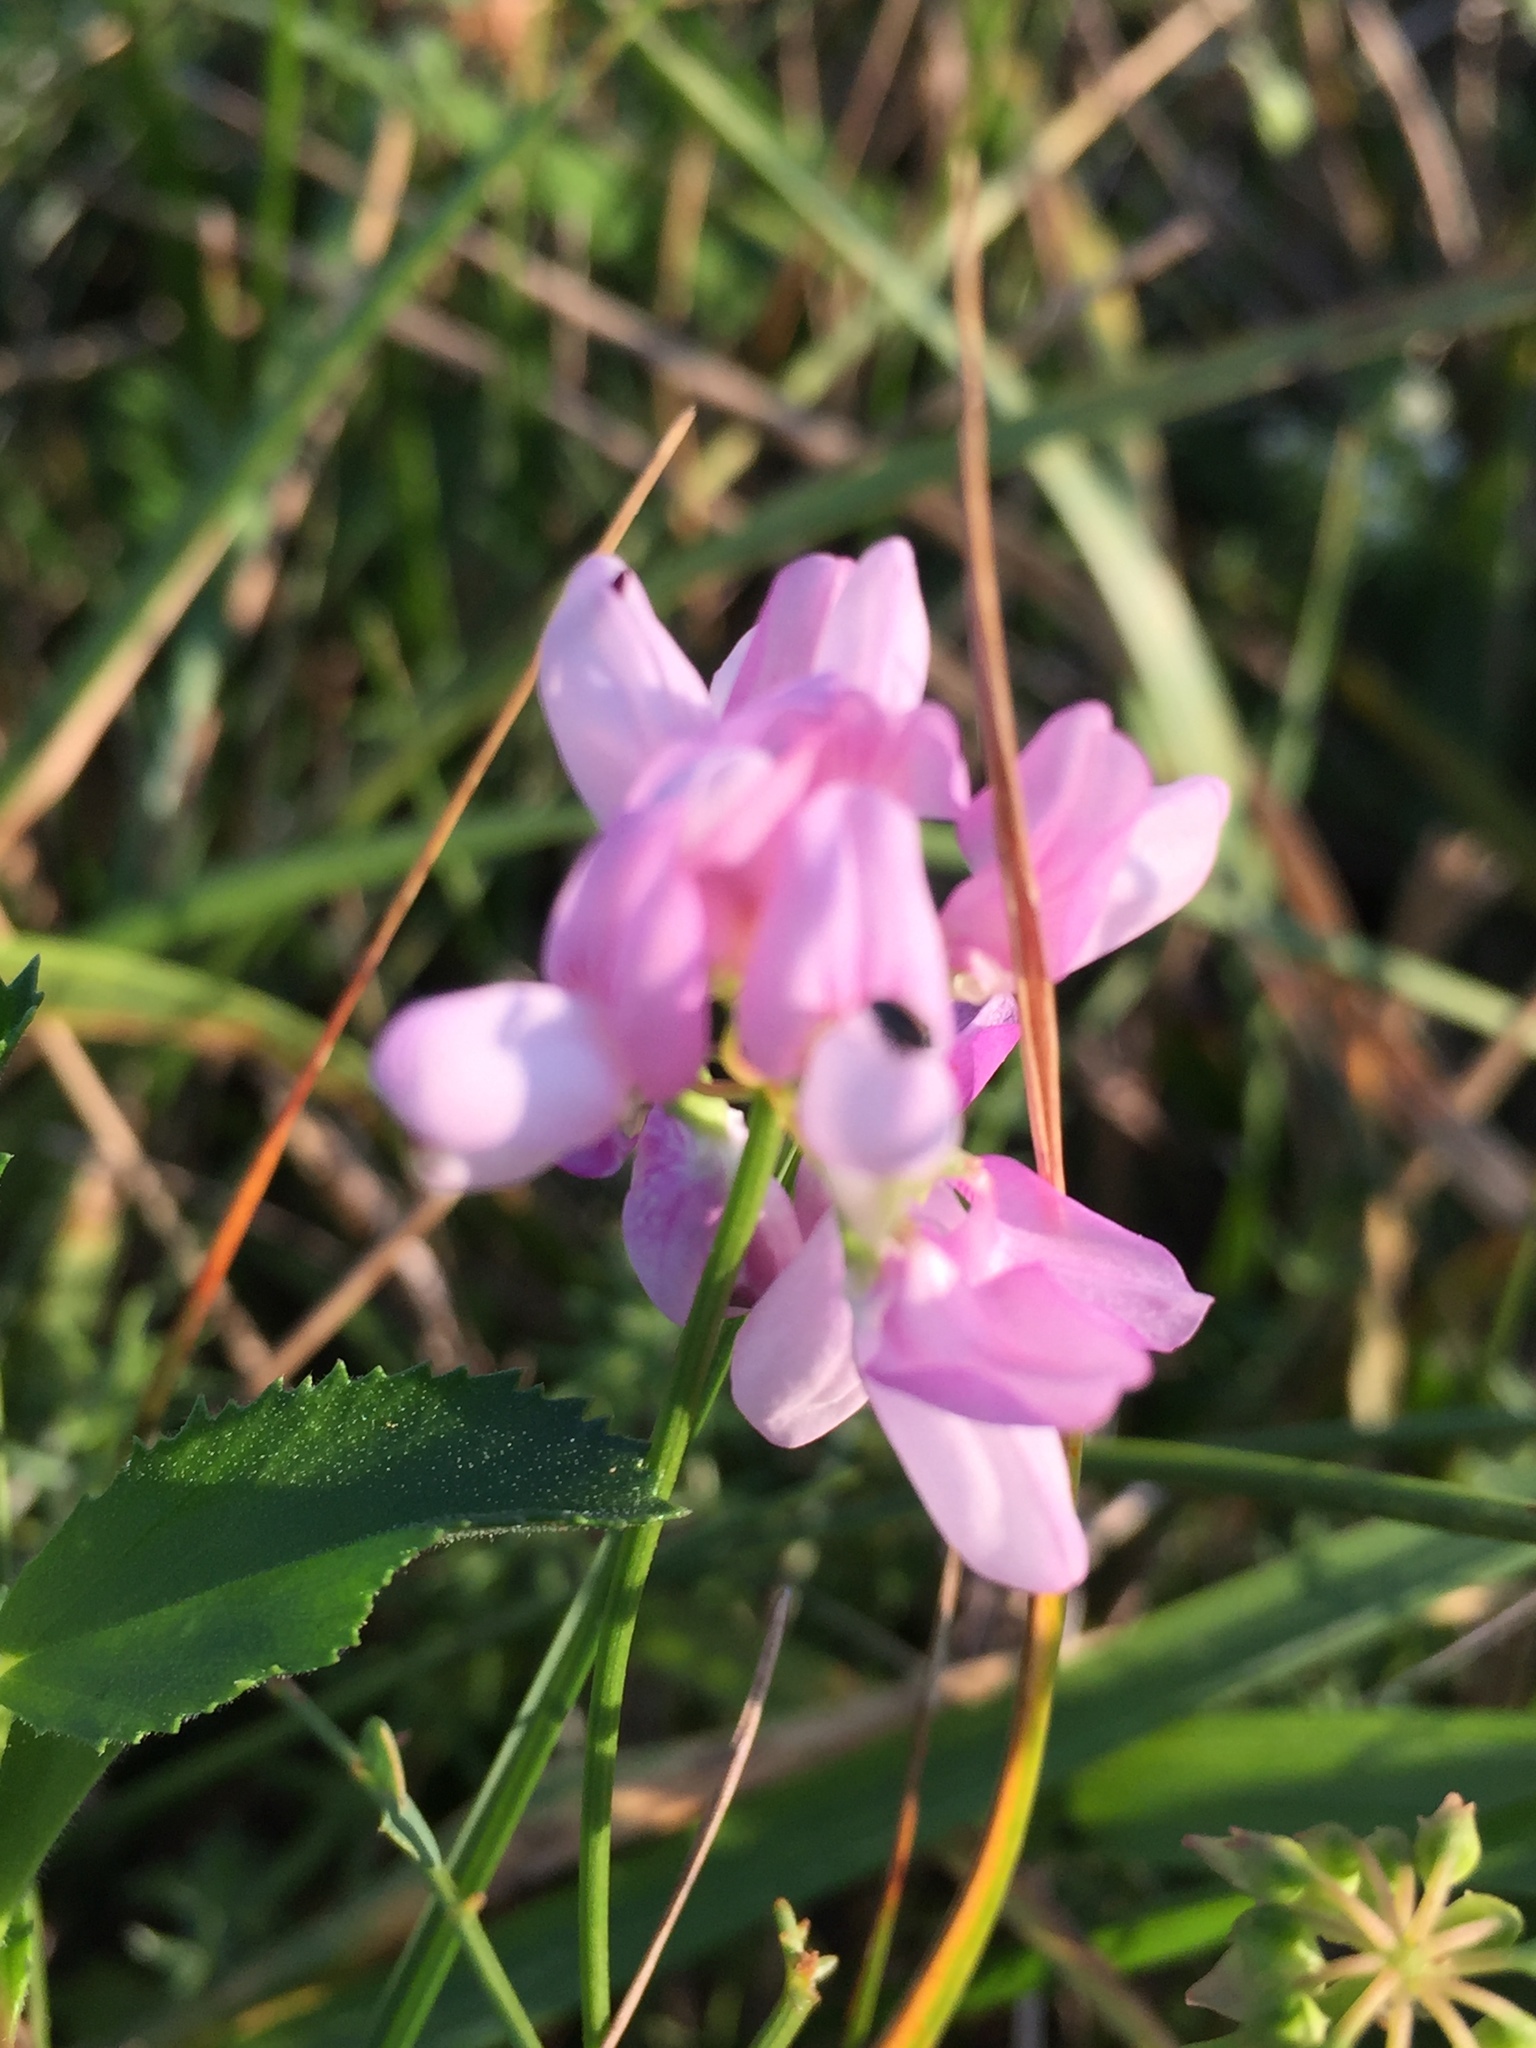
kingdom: Plantae
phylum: Tracheophyta
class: Magnoliopsida
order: Fabales
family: Fabaceae
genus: Coronilla
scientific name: Coronilla varia
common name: Crownvetch
